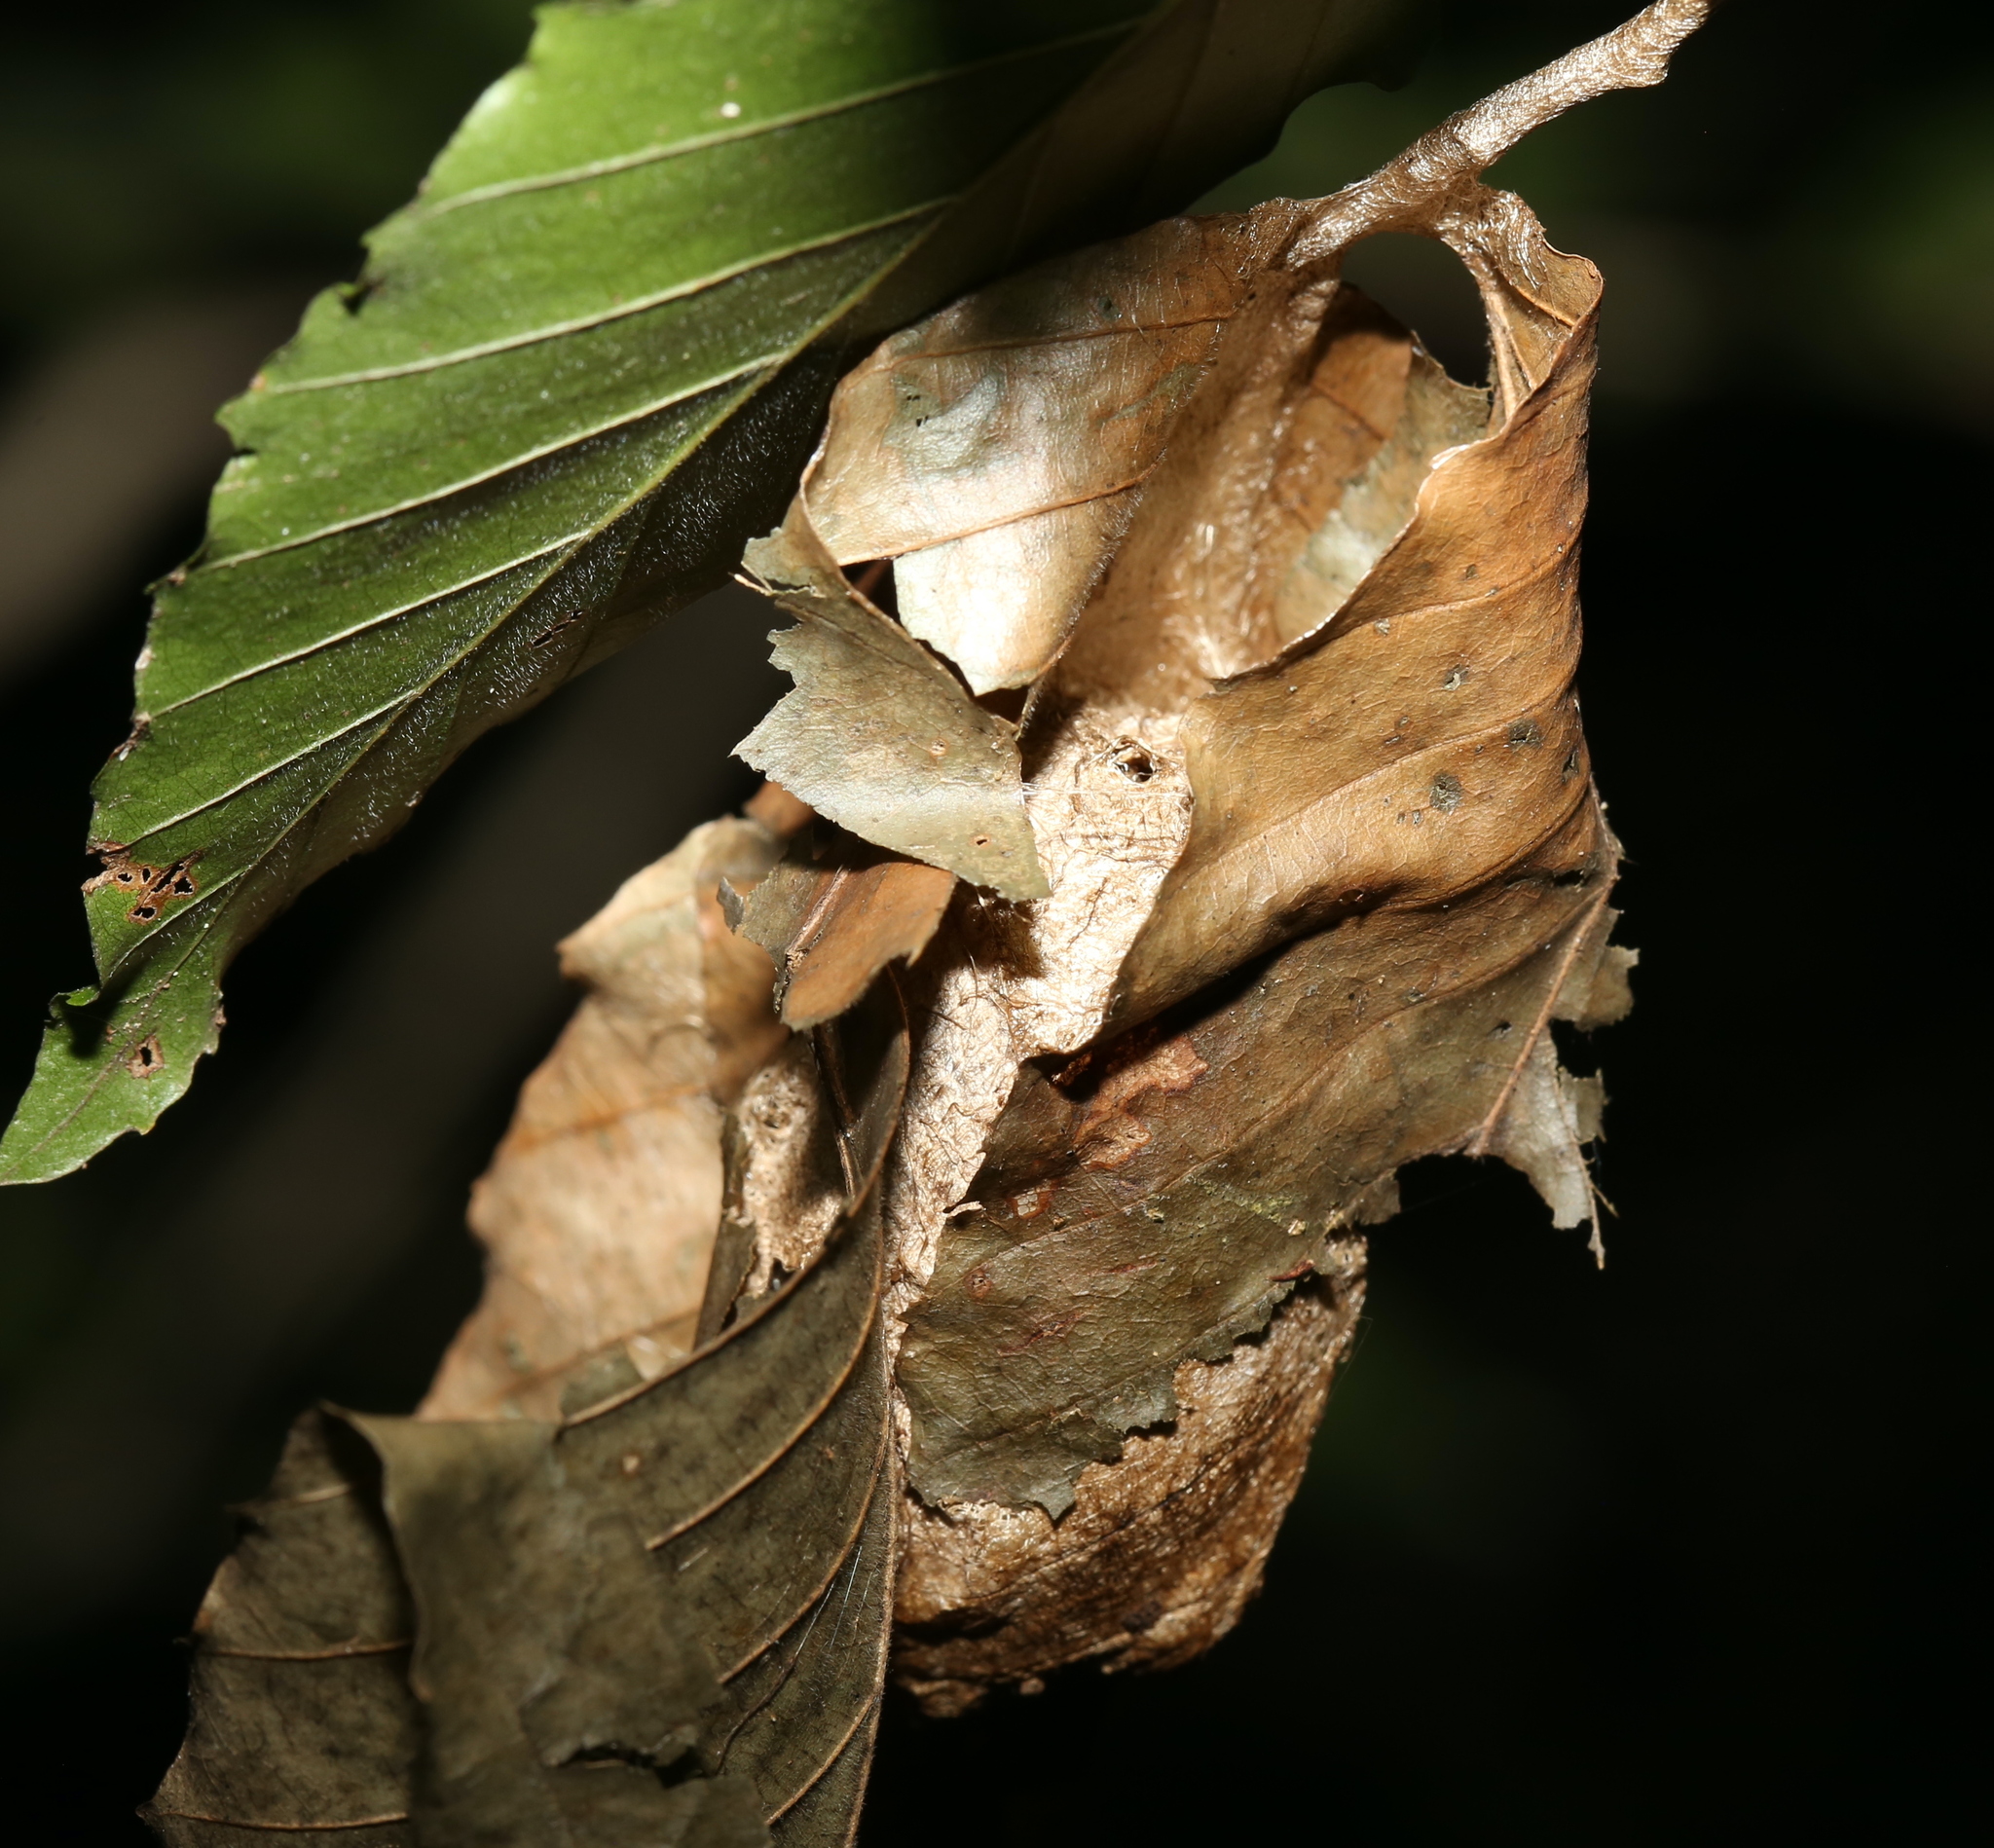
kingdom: Animalia
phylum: Arthropoda
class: Insecta
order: Lepidoptera
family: Saturniidae
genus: Antheraea
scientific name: Antheraea polyphemus
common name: Polyphemus moth
